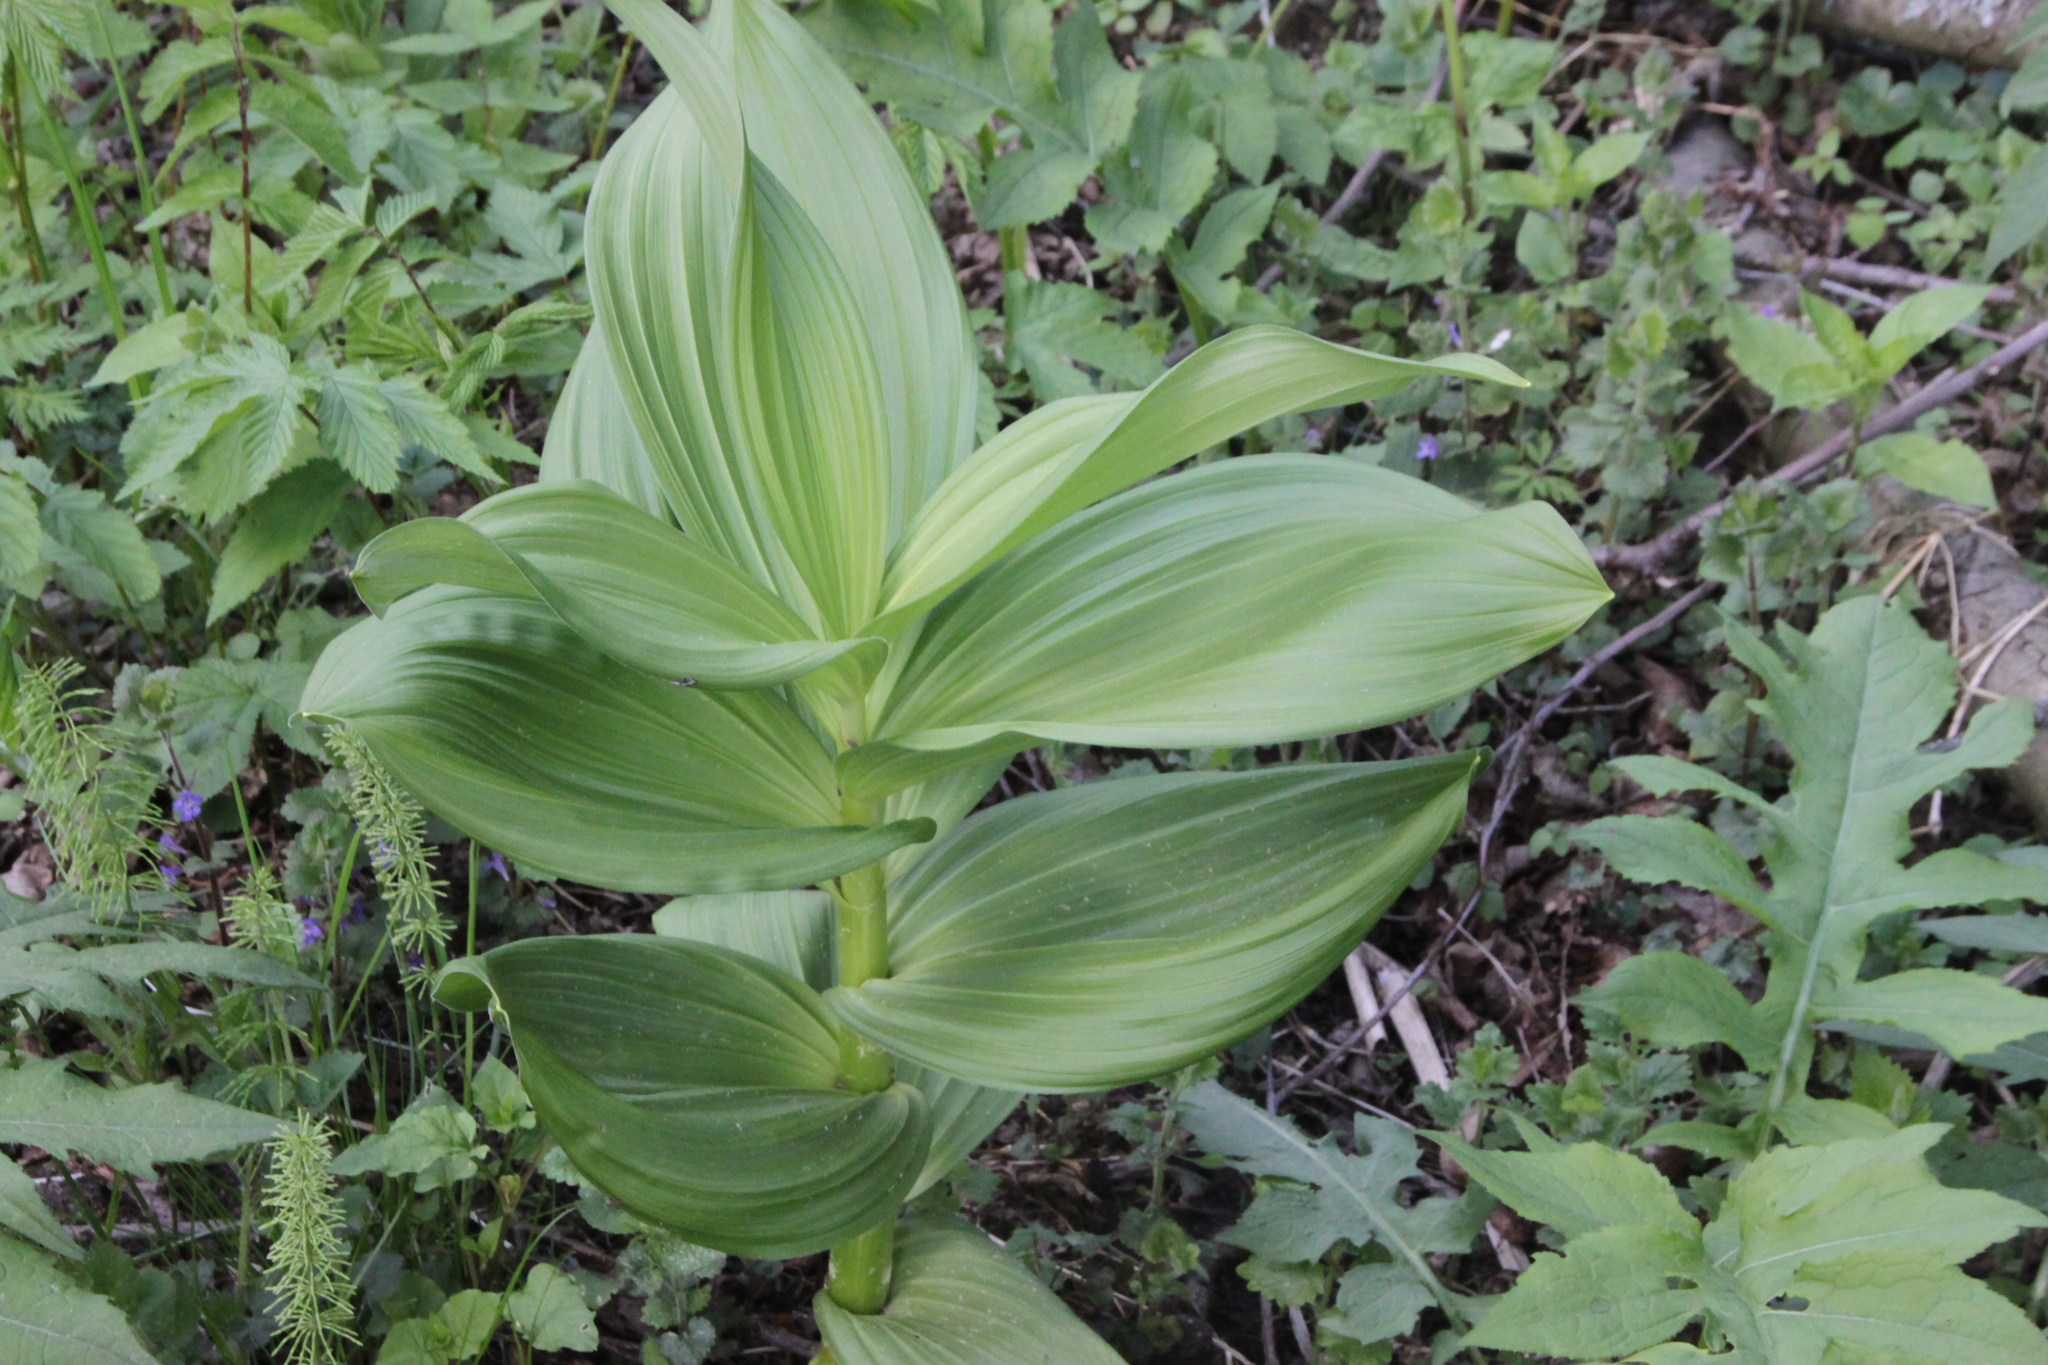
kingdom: Plantae
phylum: Tracheophyta
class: Liliopsida
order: Liliales
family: Melanthiaceae
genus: Veratrum
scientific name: Veratrum lobelianum
